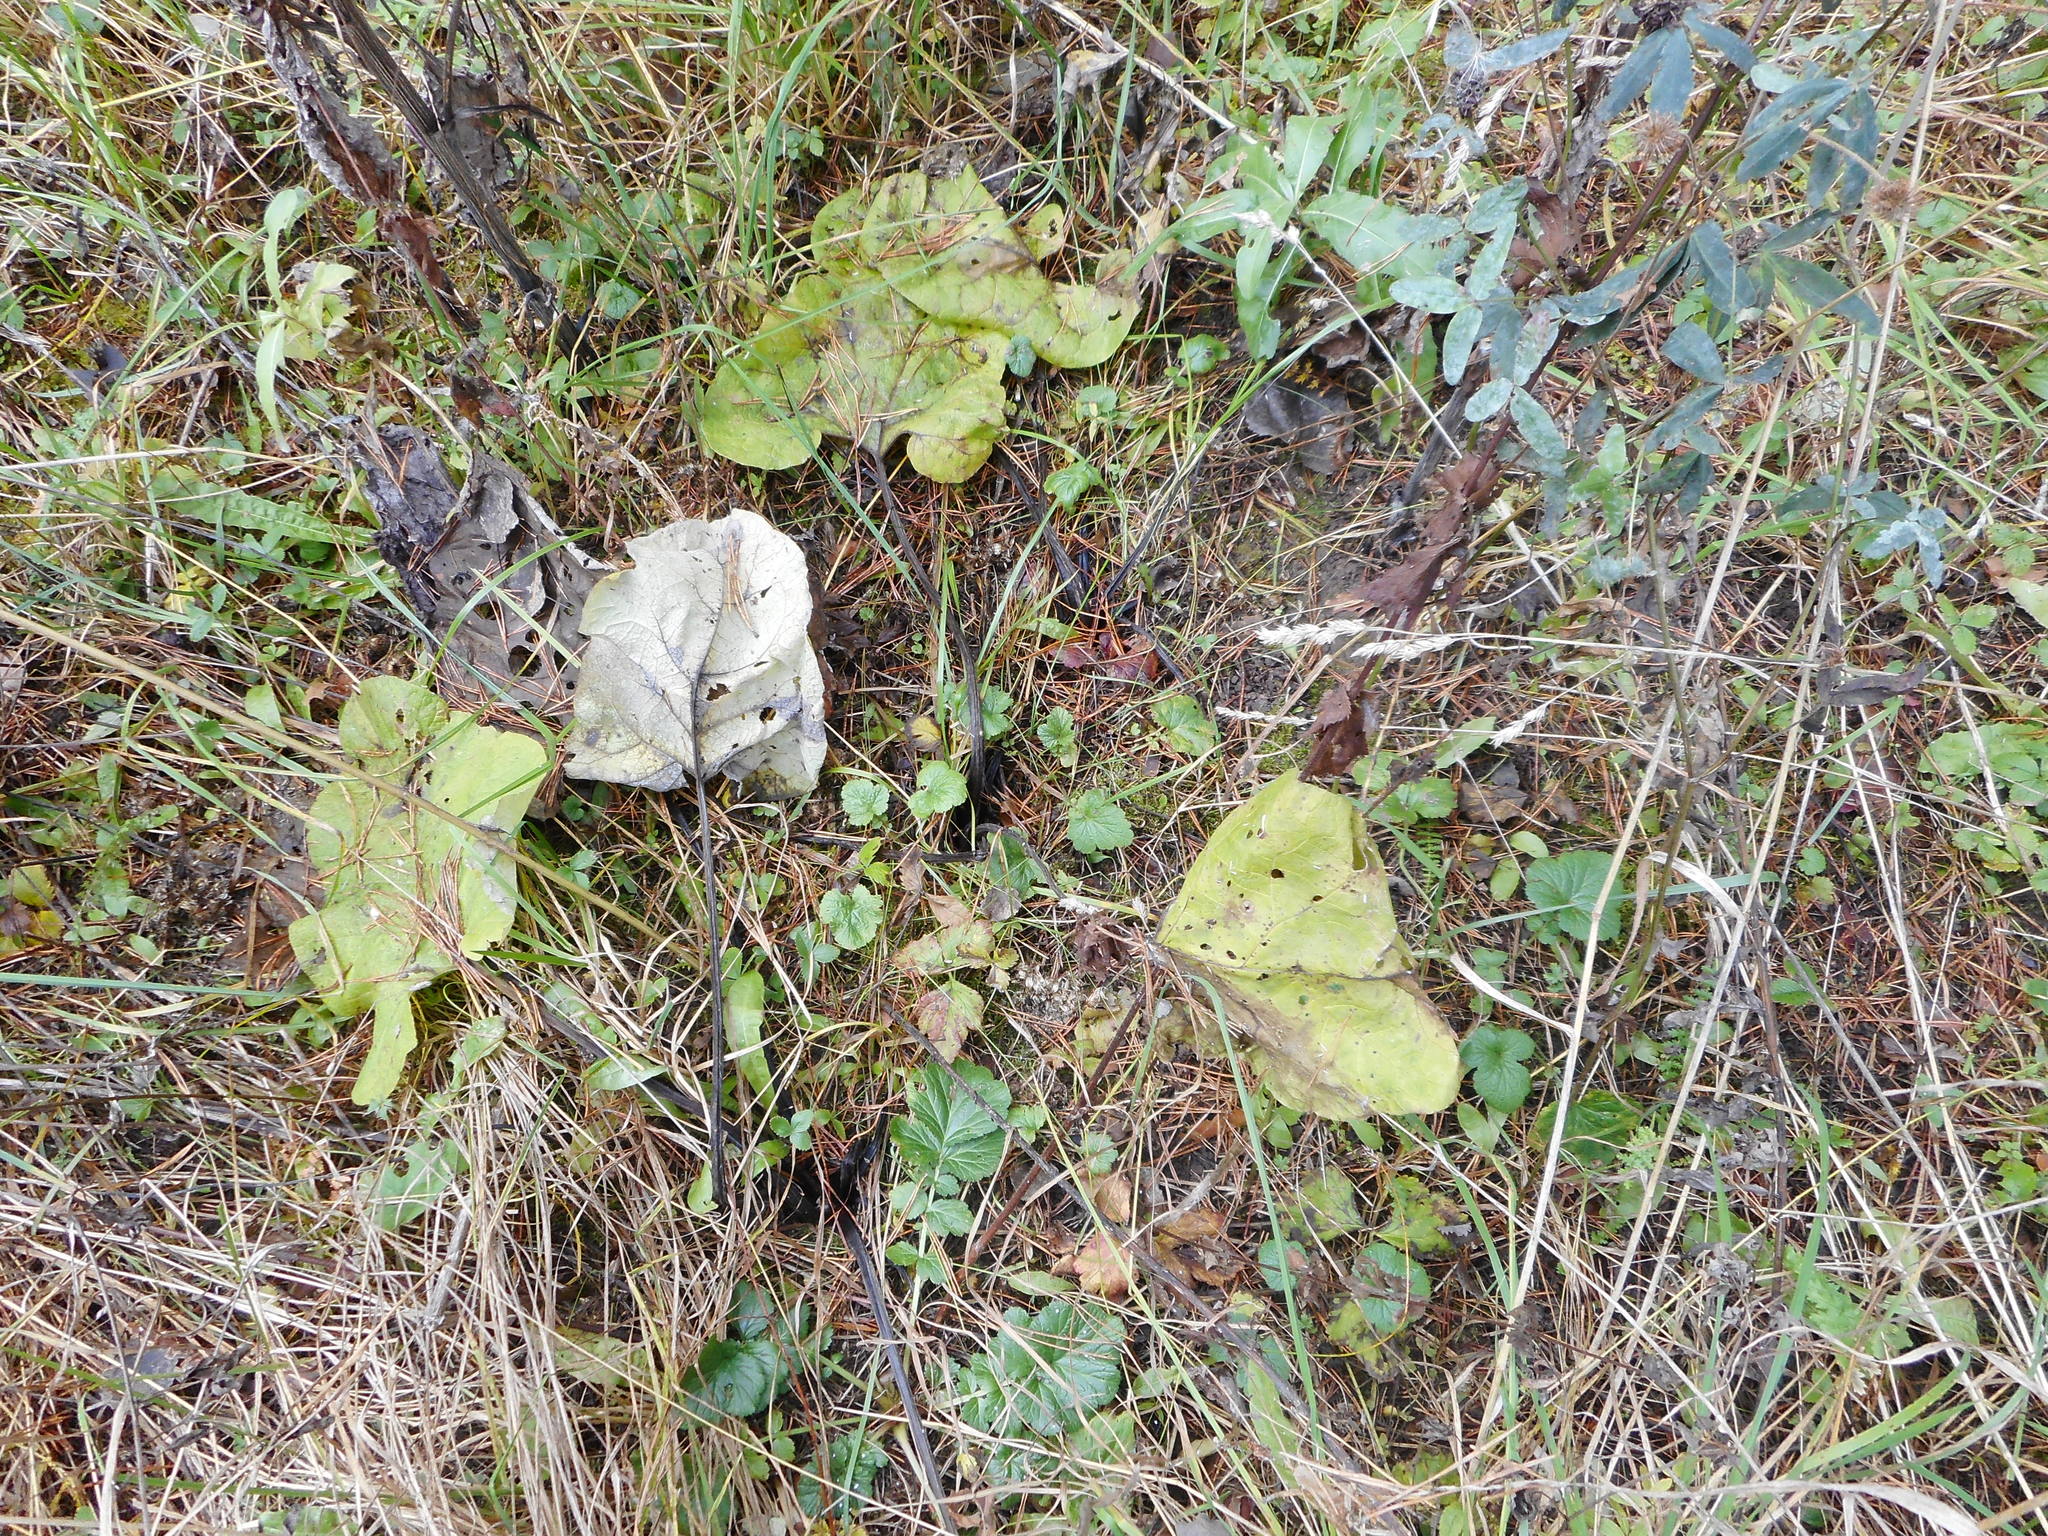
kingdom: Plantae
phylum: Tracheophyta
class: Magnoliopsida
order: Asterales
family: Asteraceae
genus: Arctium
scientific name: Arctium
